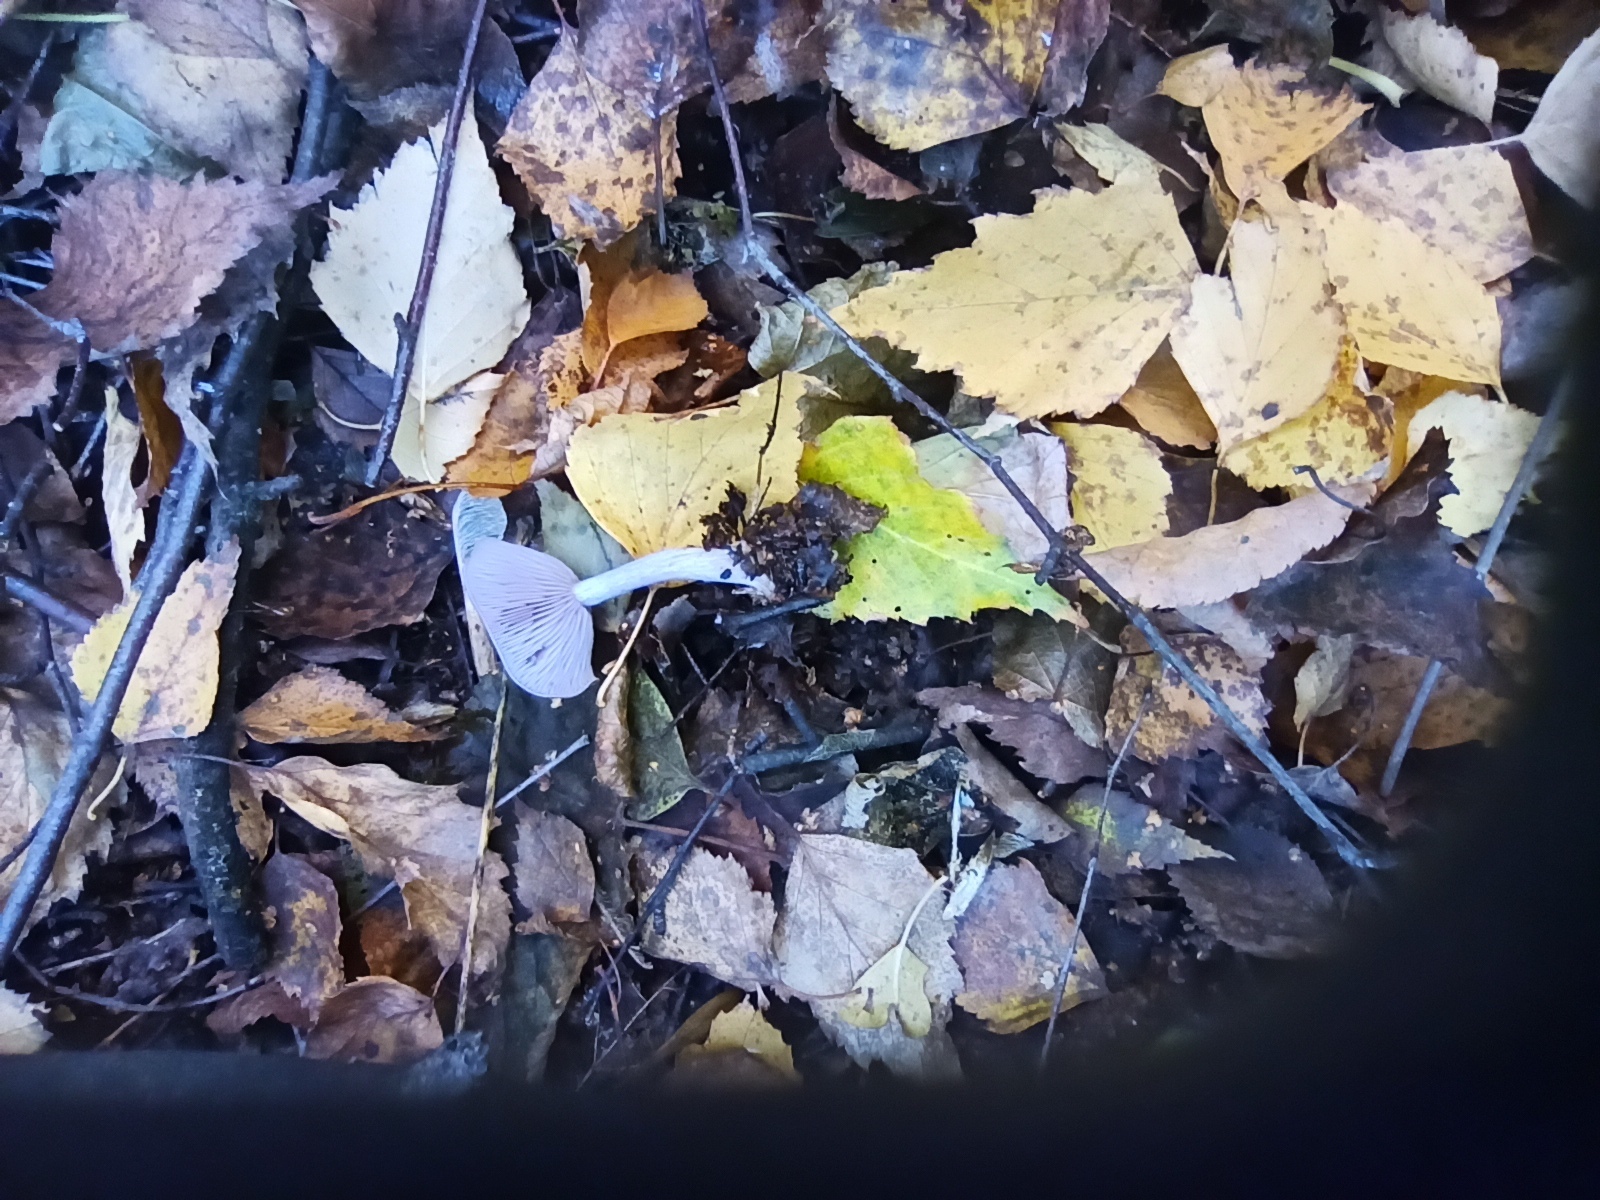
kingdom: Fungi
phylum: Basidiomycota
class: Agaricomycetes
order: Agaricales
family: Tricholomataceae
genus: Collybia
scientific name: Collybia
